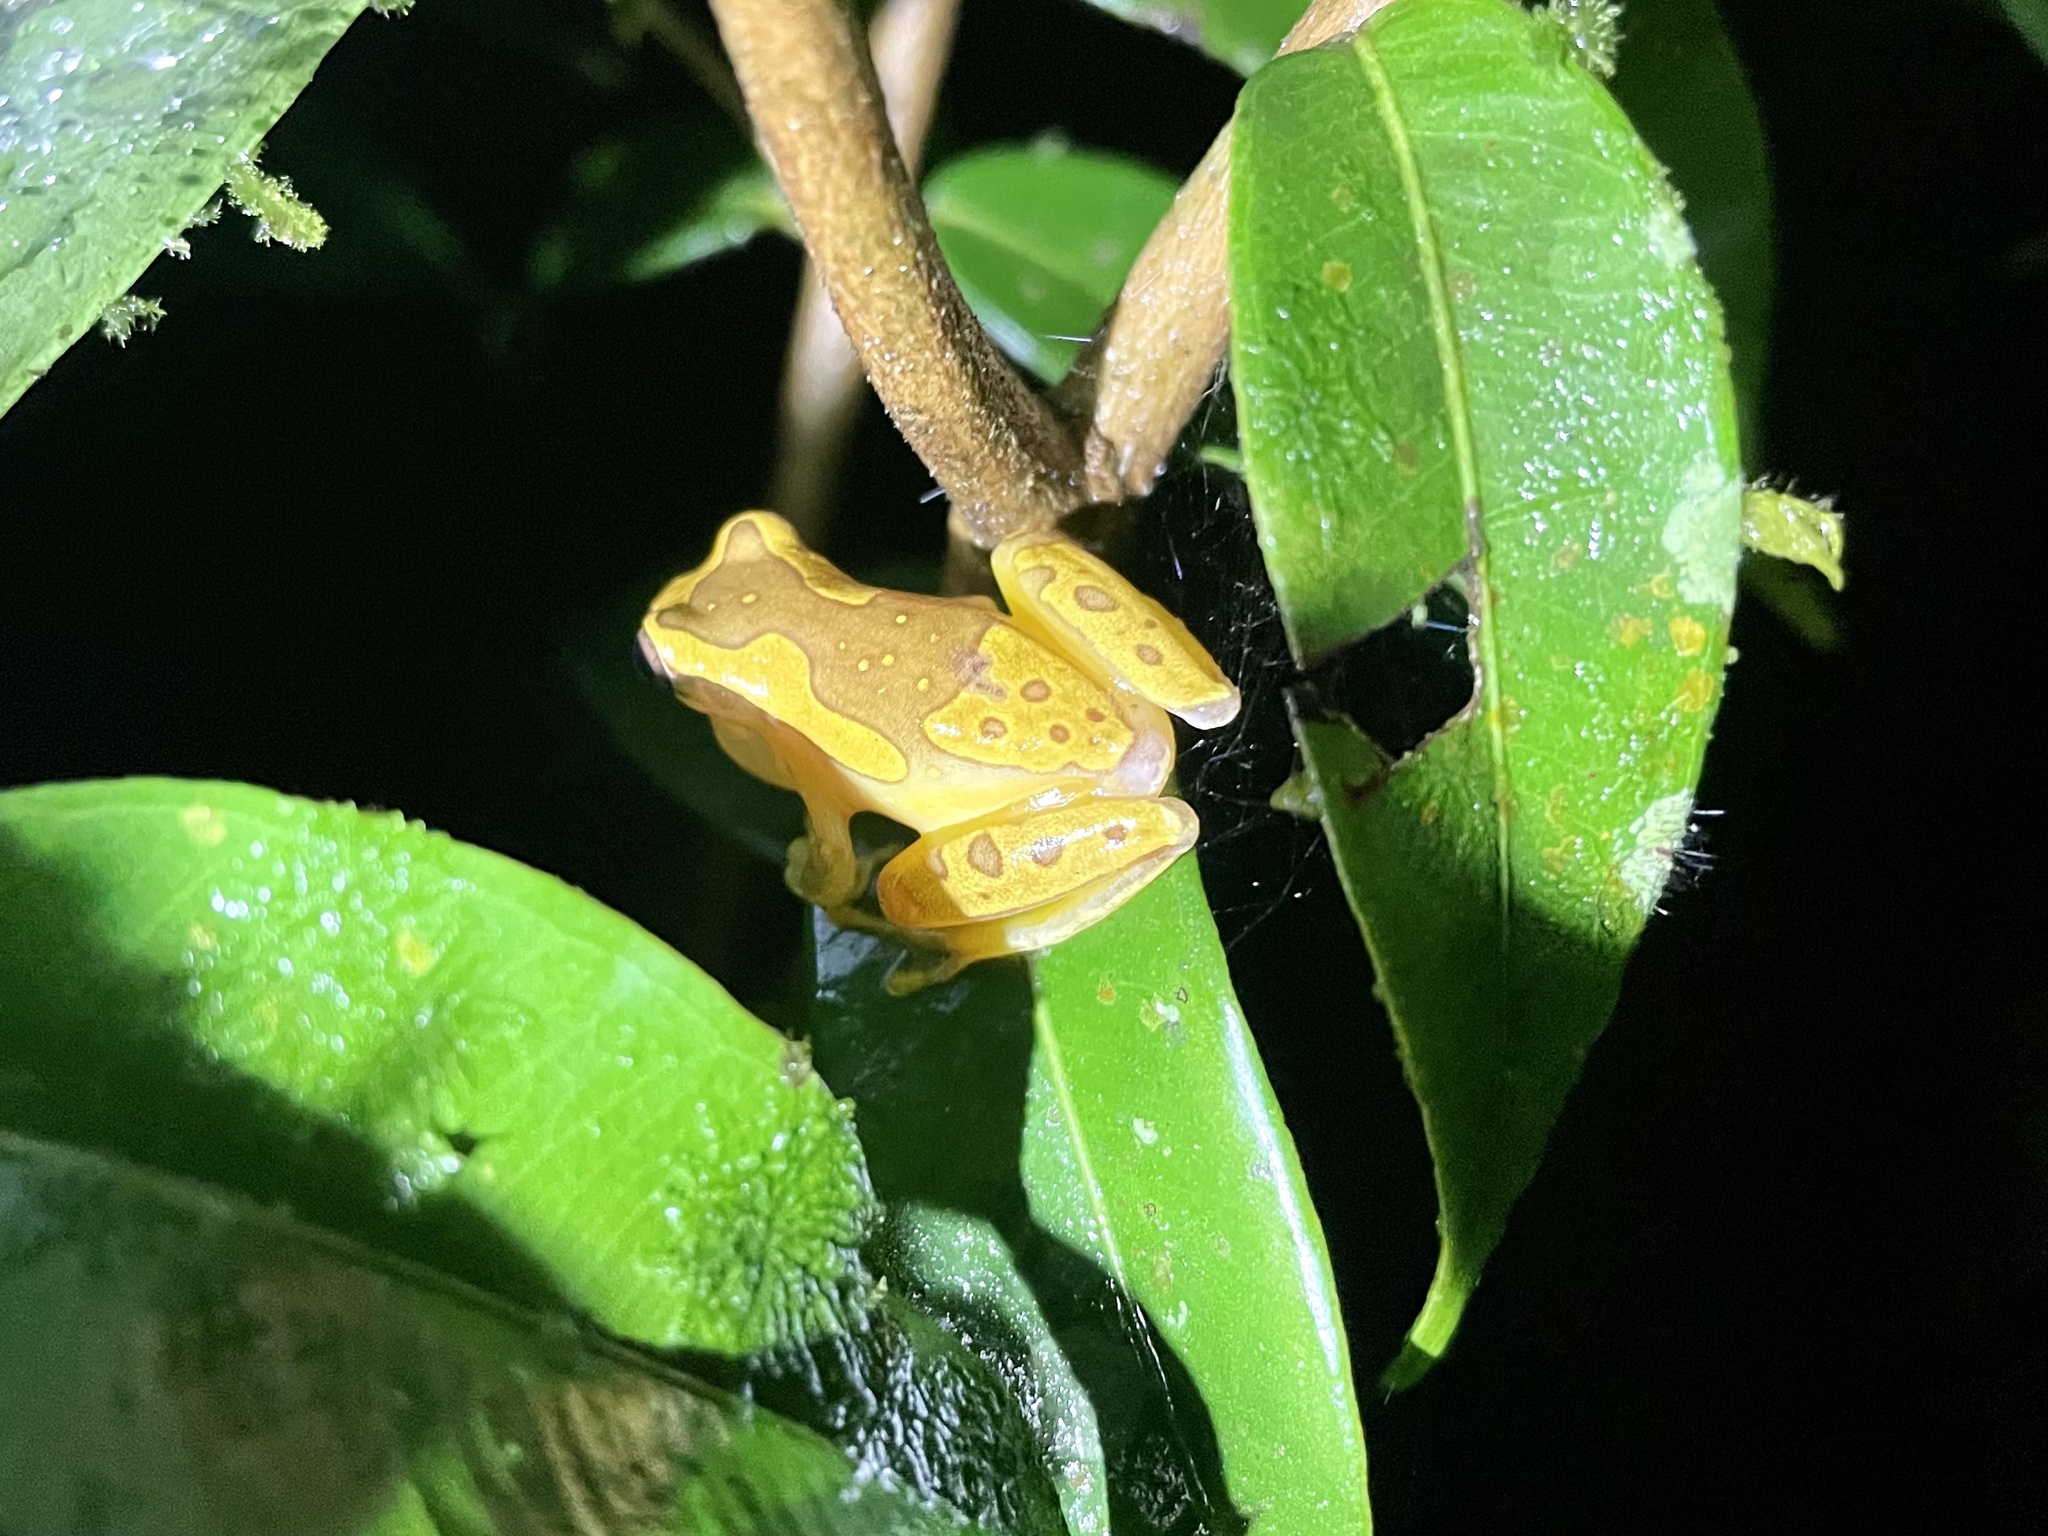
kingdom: Animalia
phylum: Chordata
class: Amphibia
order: Anura
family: Hylidae
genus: Dendropsophus
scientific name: Dendropsophus ebraccatus
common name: Hourglass treefrog
